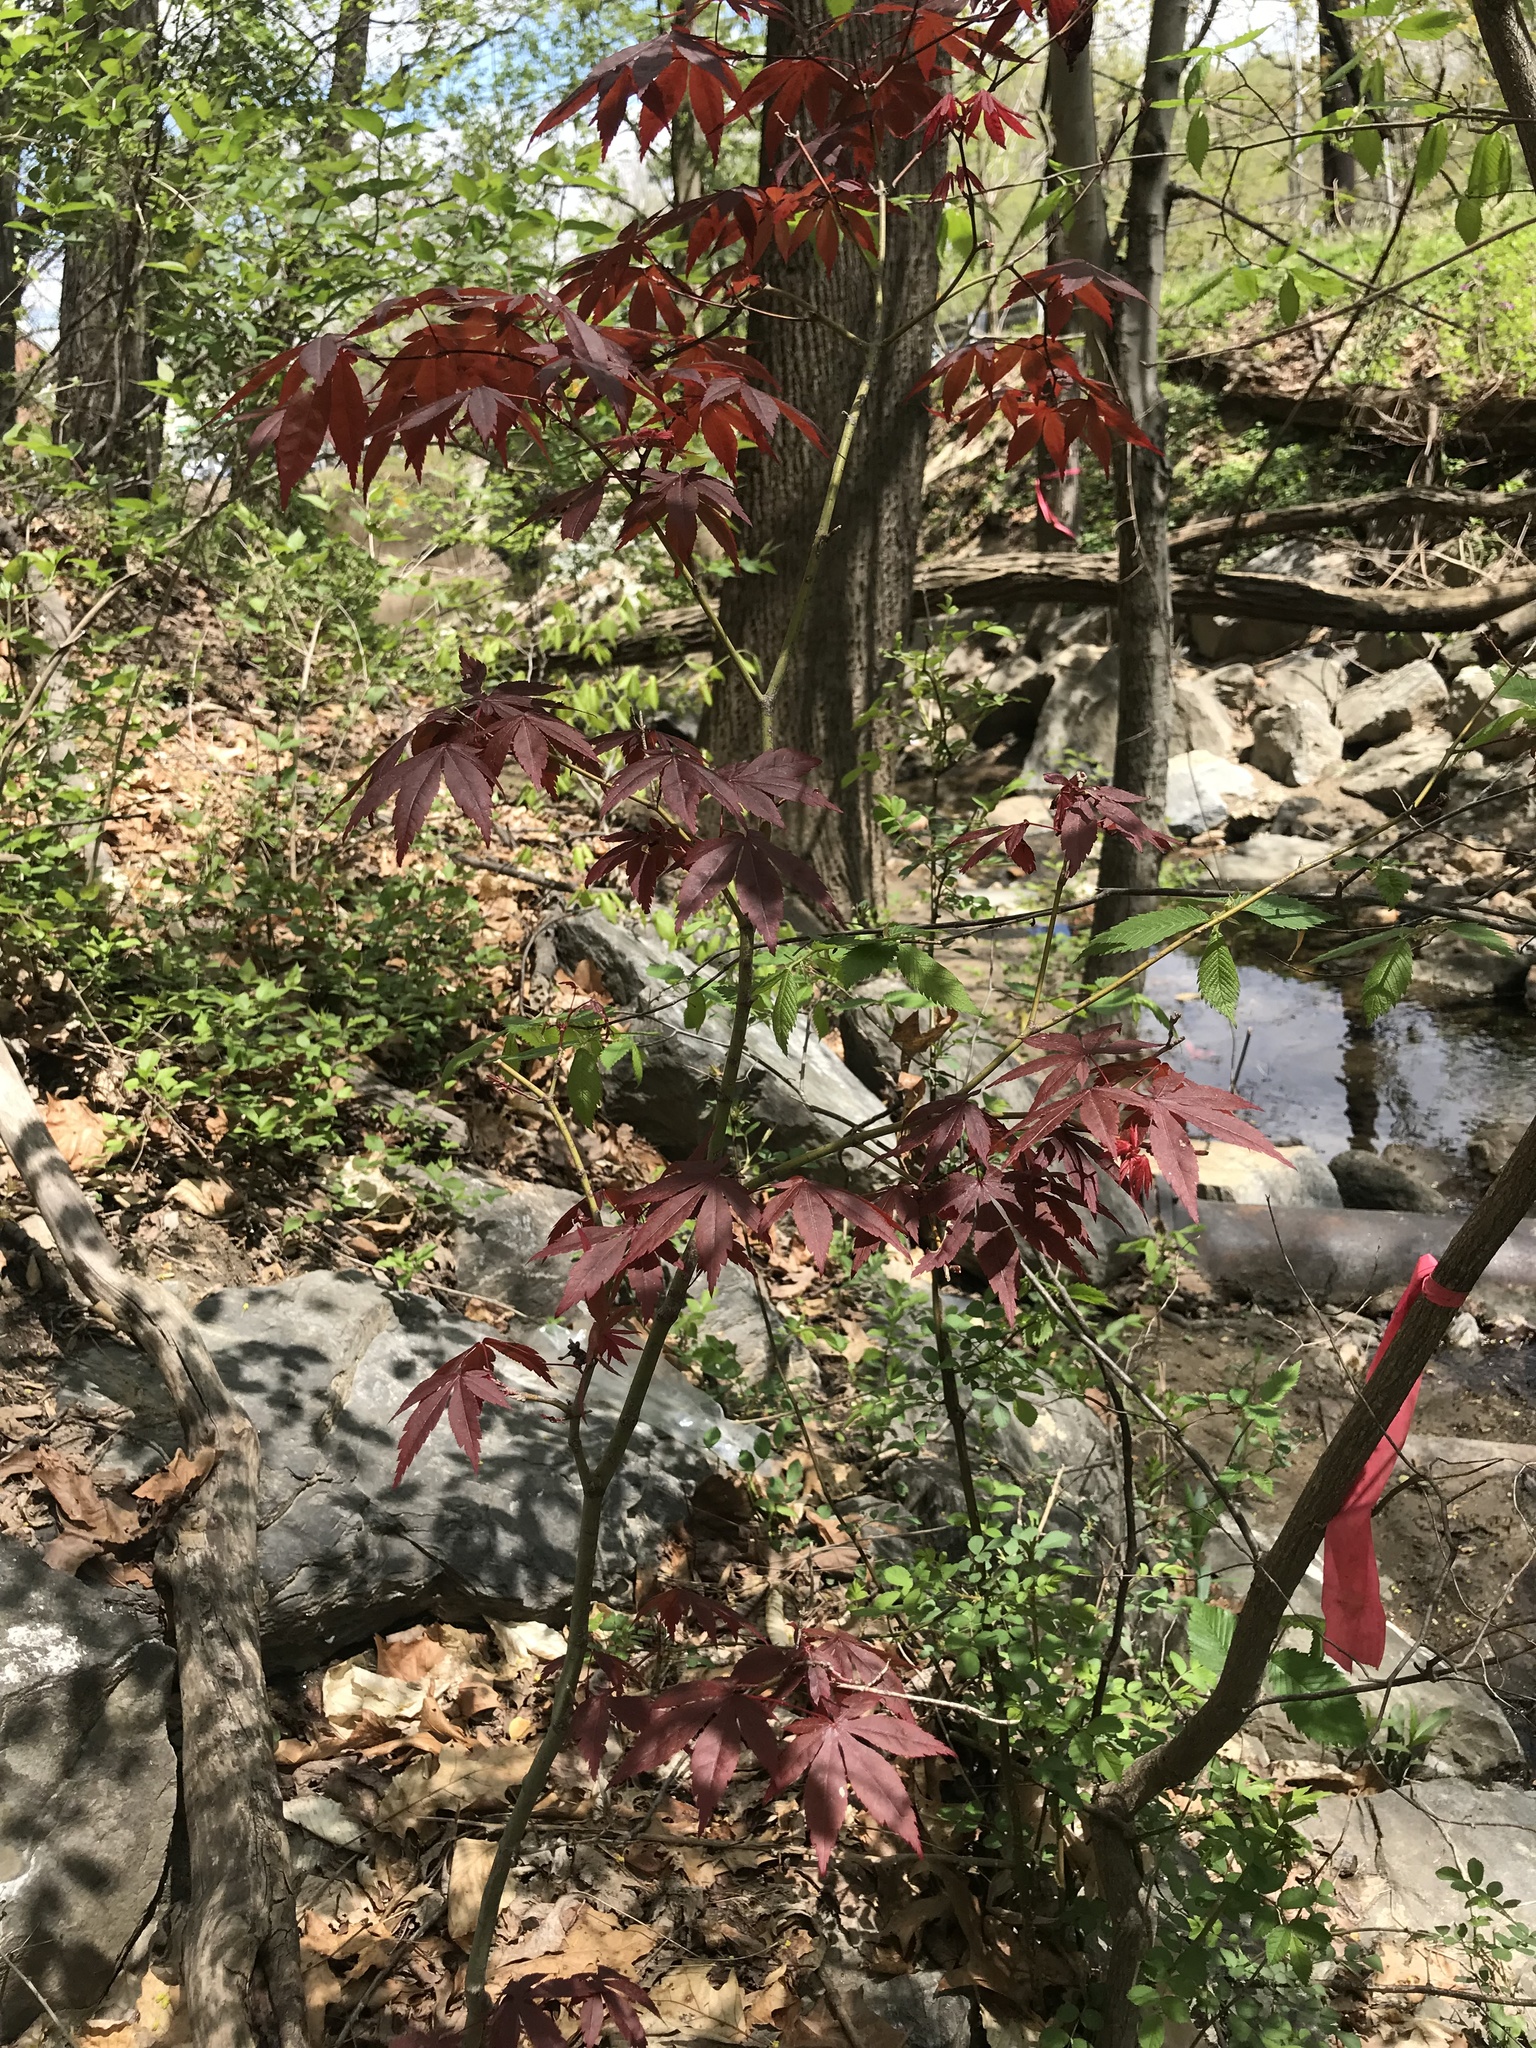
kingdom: Plantae
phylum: Tracheophyta
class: Magnoliopsida
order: Sapindales
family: Sapindaceae
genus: Acer
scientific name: Acer palmatum
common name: Japanese maple
